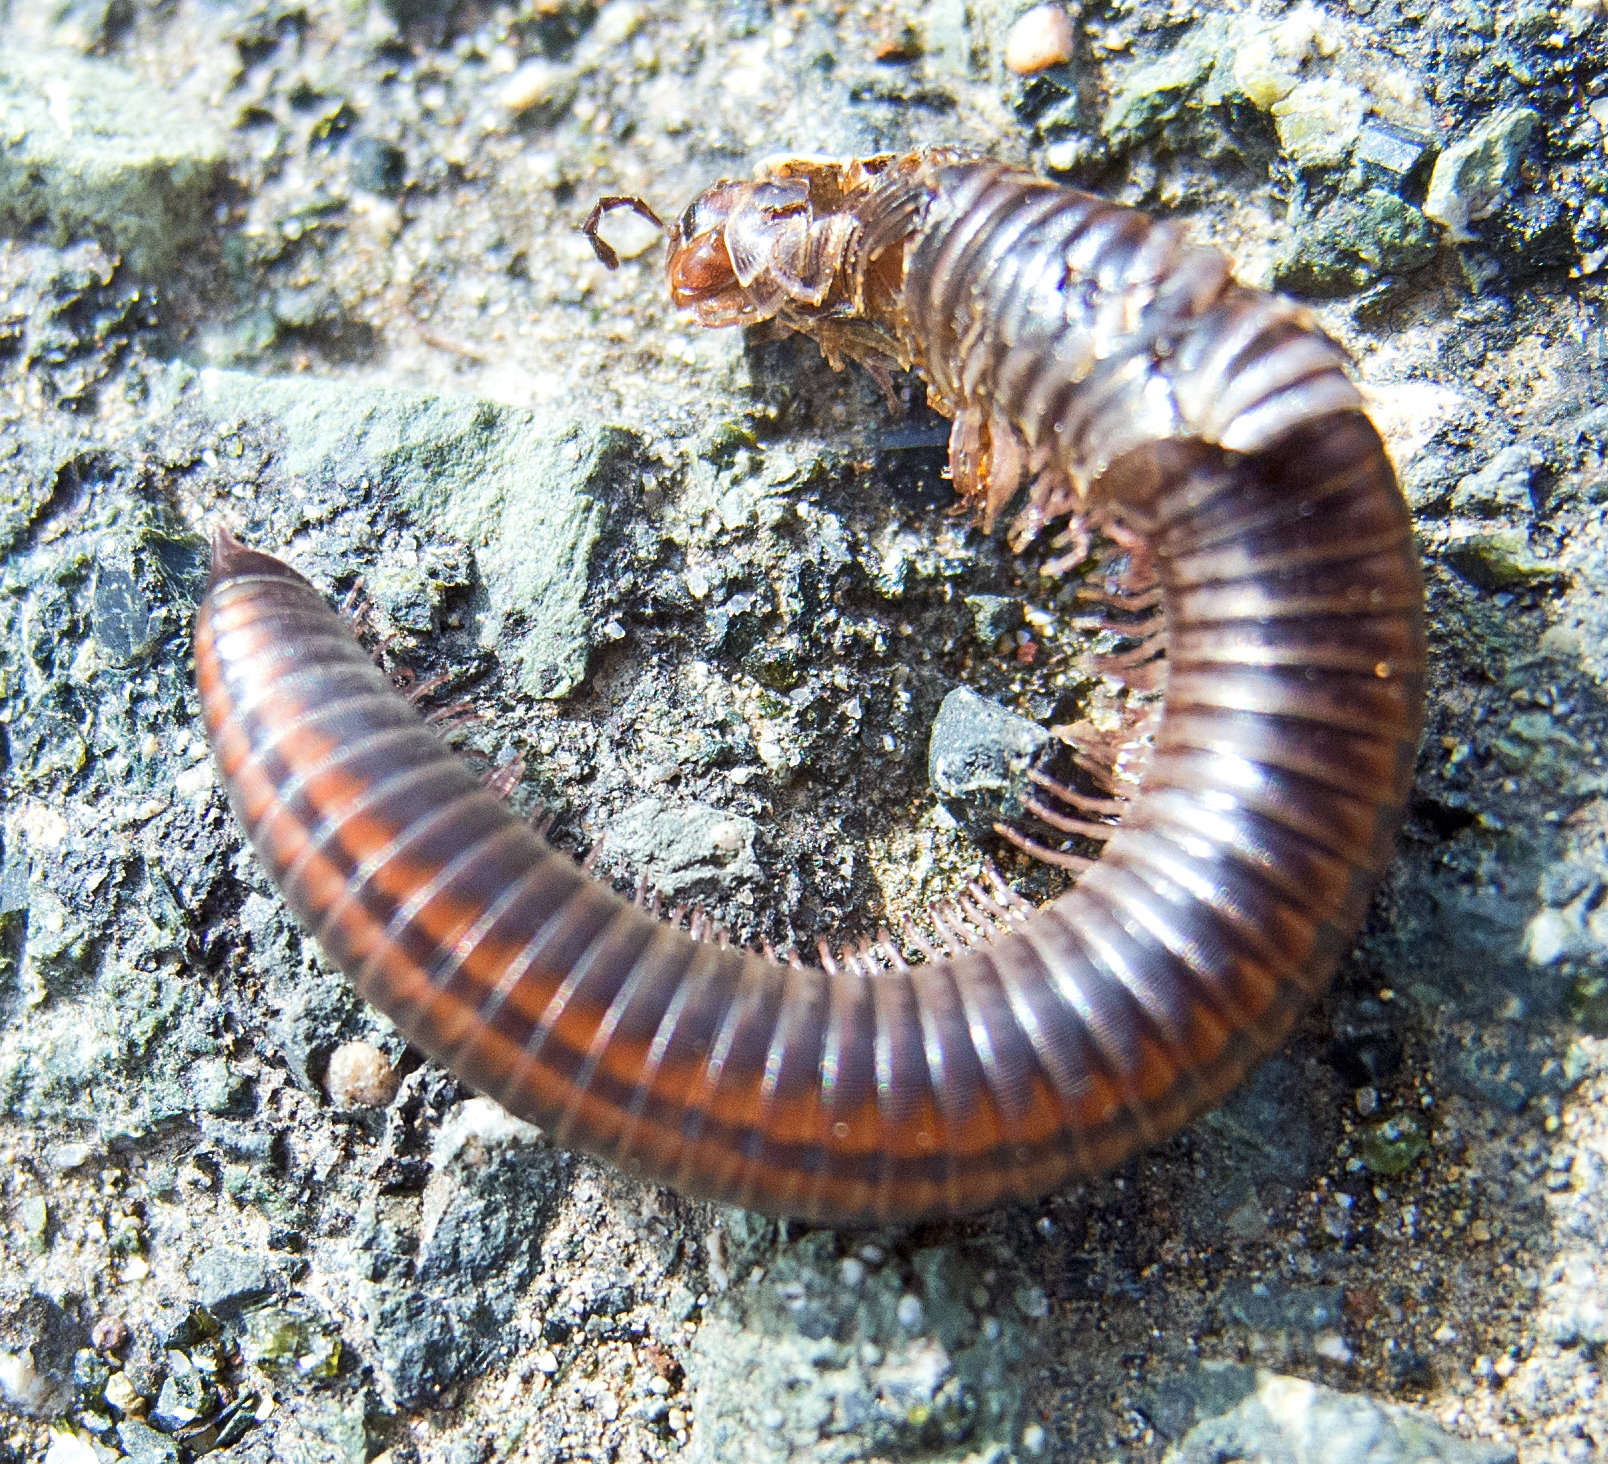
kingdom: Animalia
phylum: Arthropoda
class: Diplopoda
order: Julida
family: Julidae
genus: Ommatoiulus
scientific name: Ommatoiulus sabulosus
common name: Striped millipede
